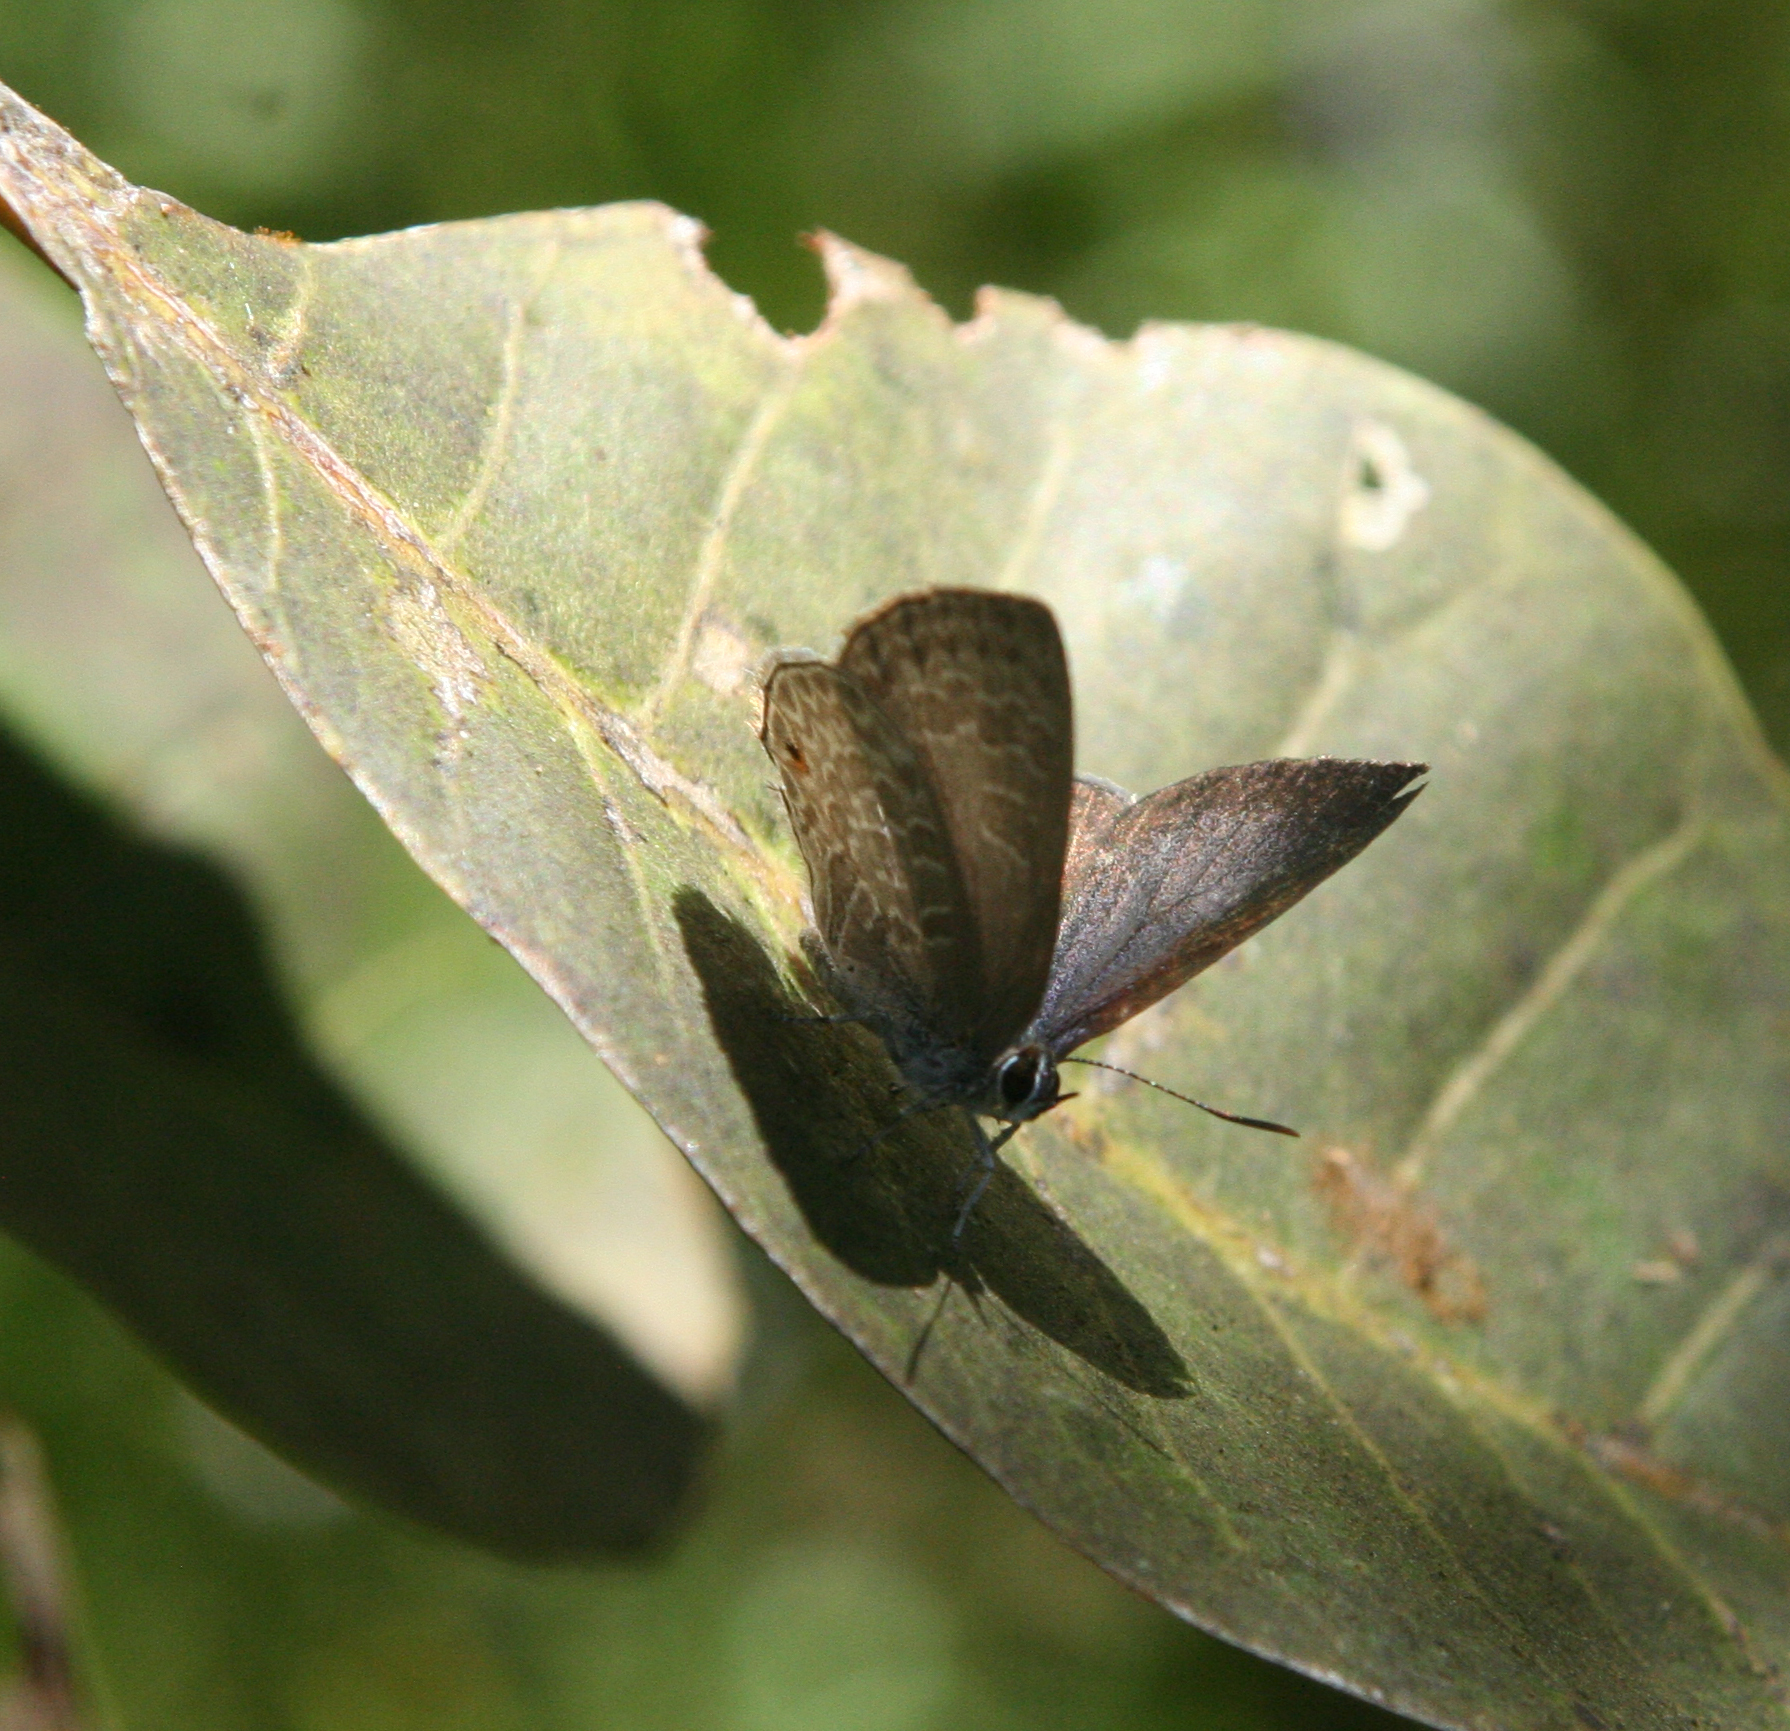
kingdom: Animalia
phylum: Arthropoda
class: Insecta
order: Lepidoptera
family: Lycaenidae
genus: Anthene
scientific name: Anthene emolus
